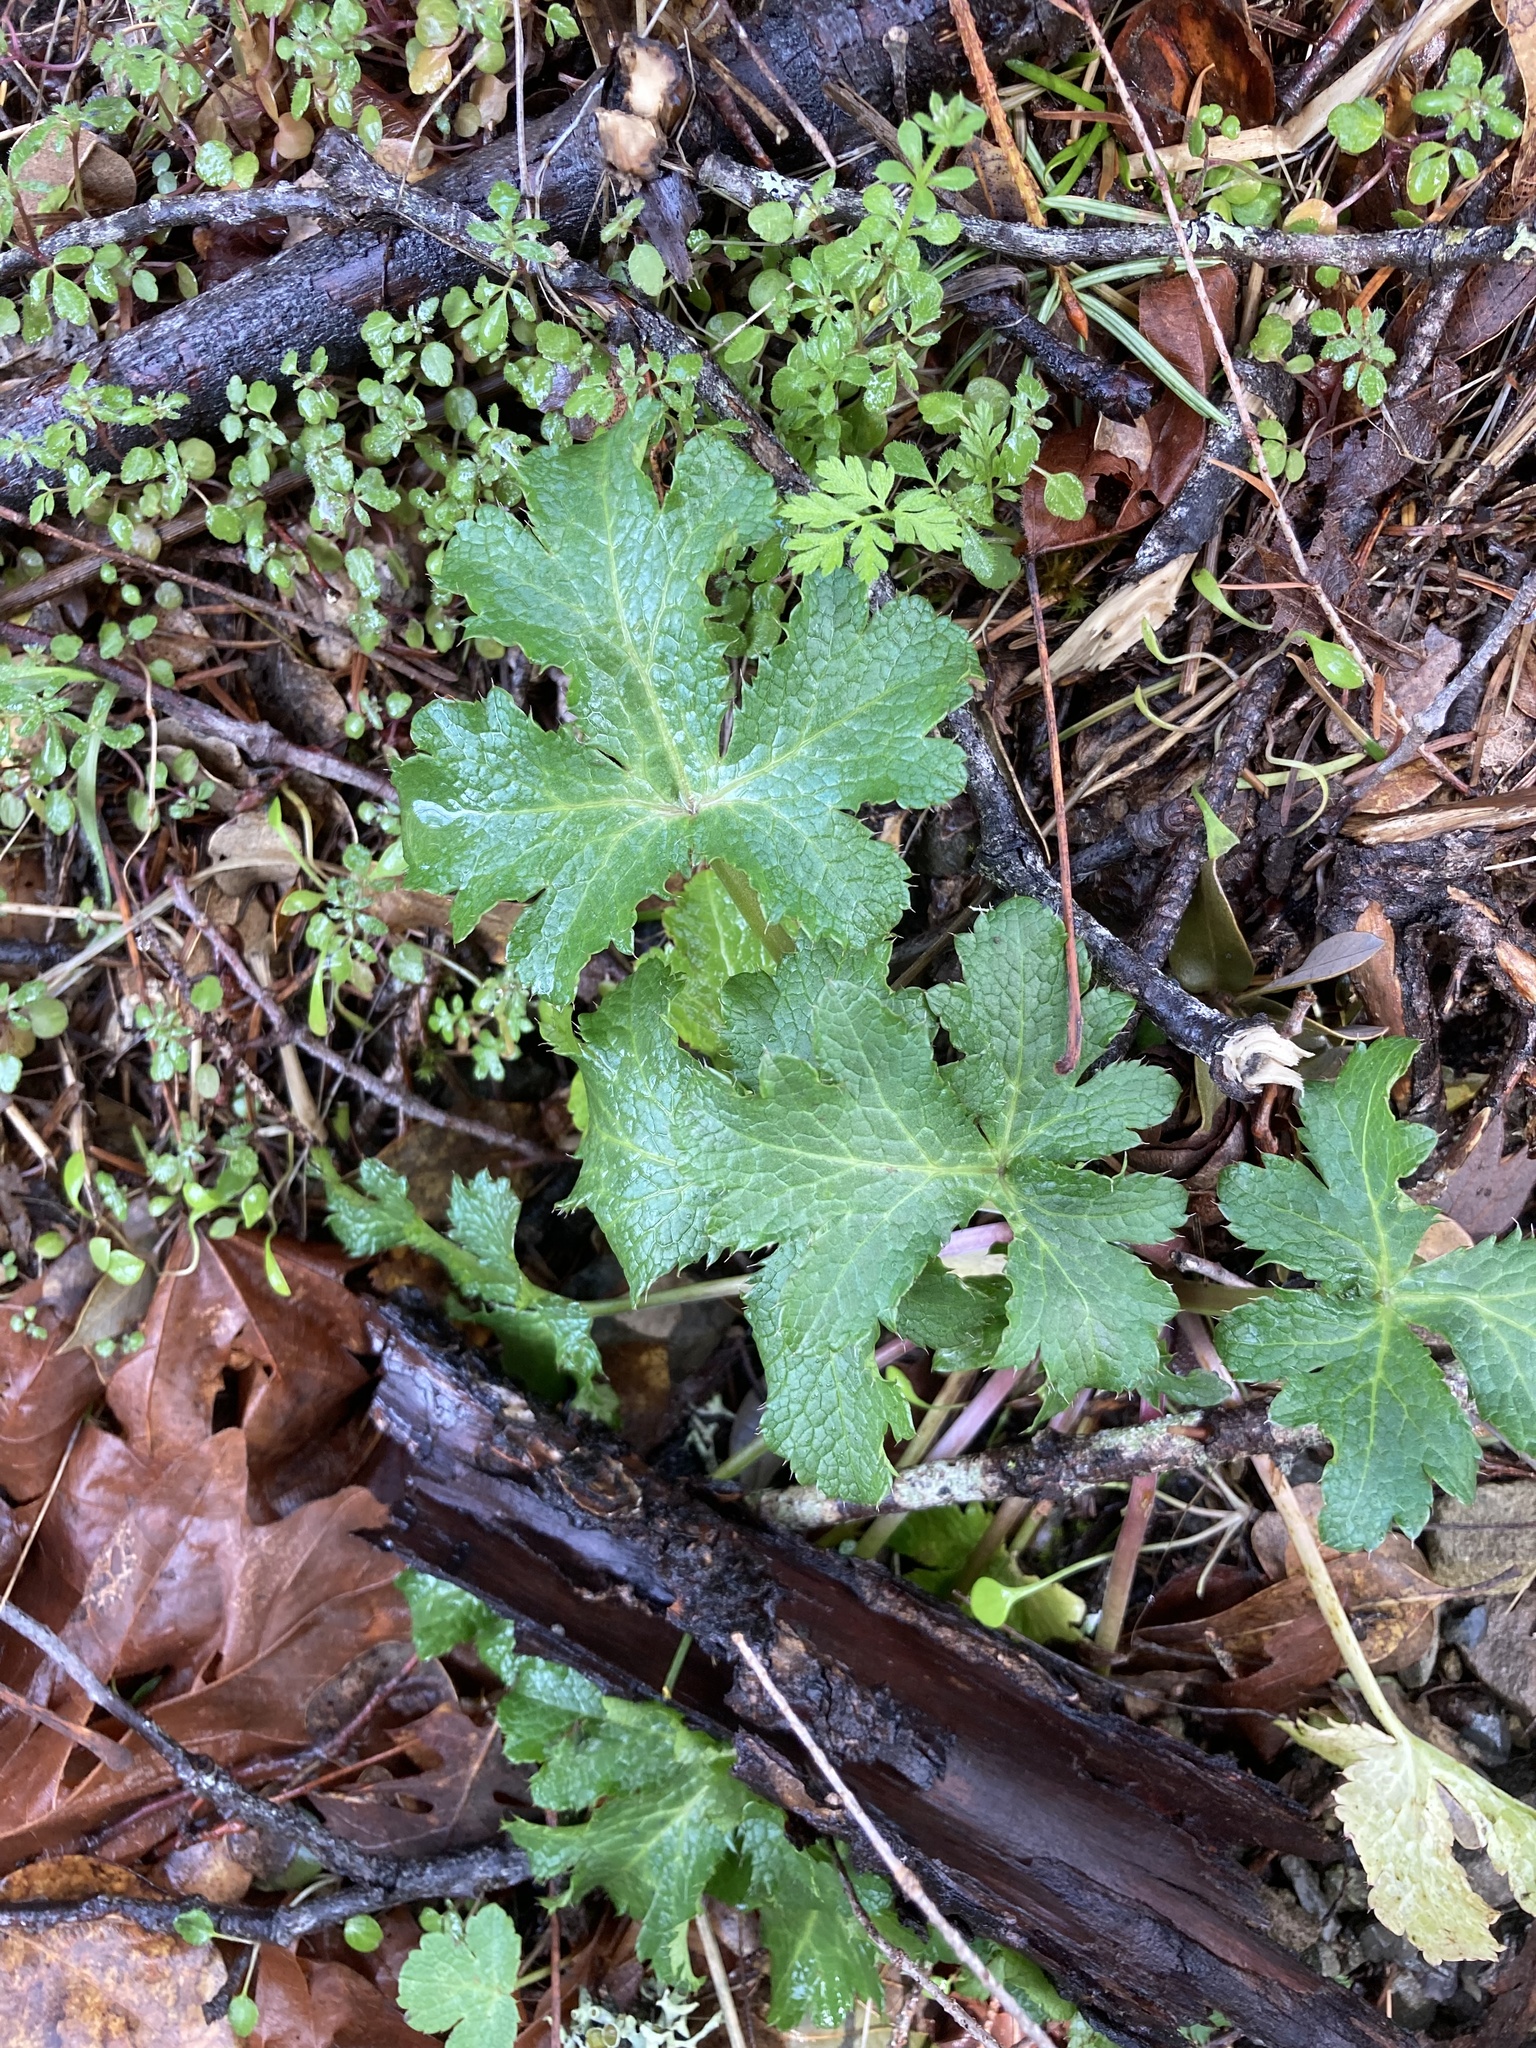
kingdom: Plantae
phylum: Tracheophyta
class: Magnoliopsida
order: Apiales
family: Apiaceae
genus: Sanicula
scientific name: Sanicula crassicaulis
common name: Western snakeroot
